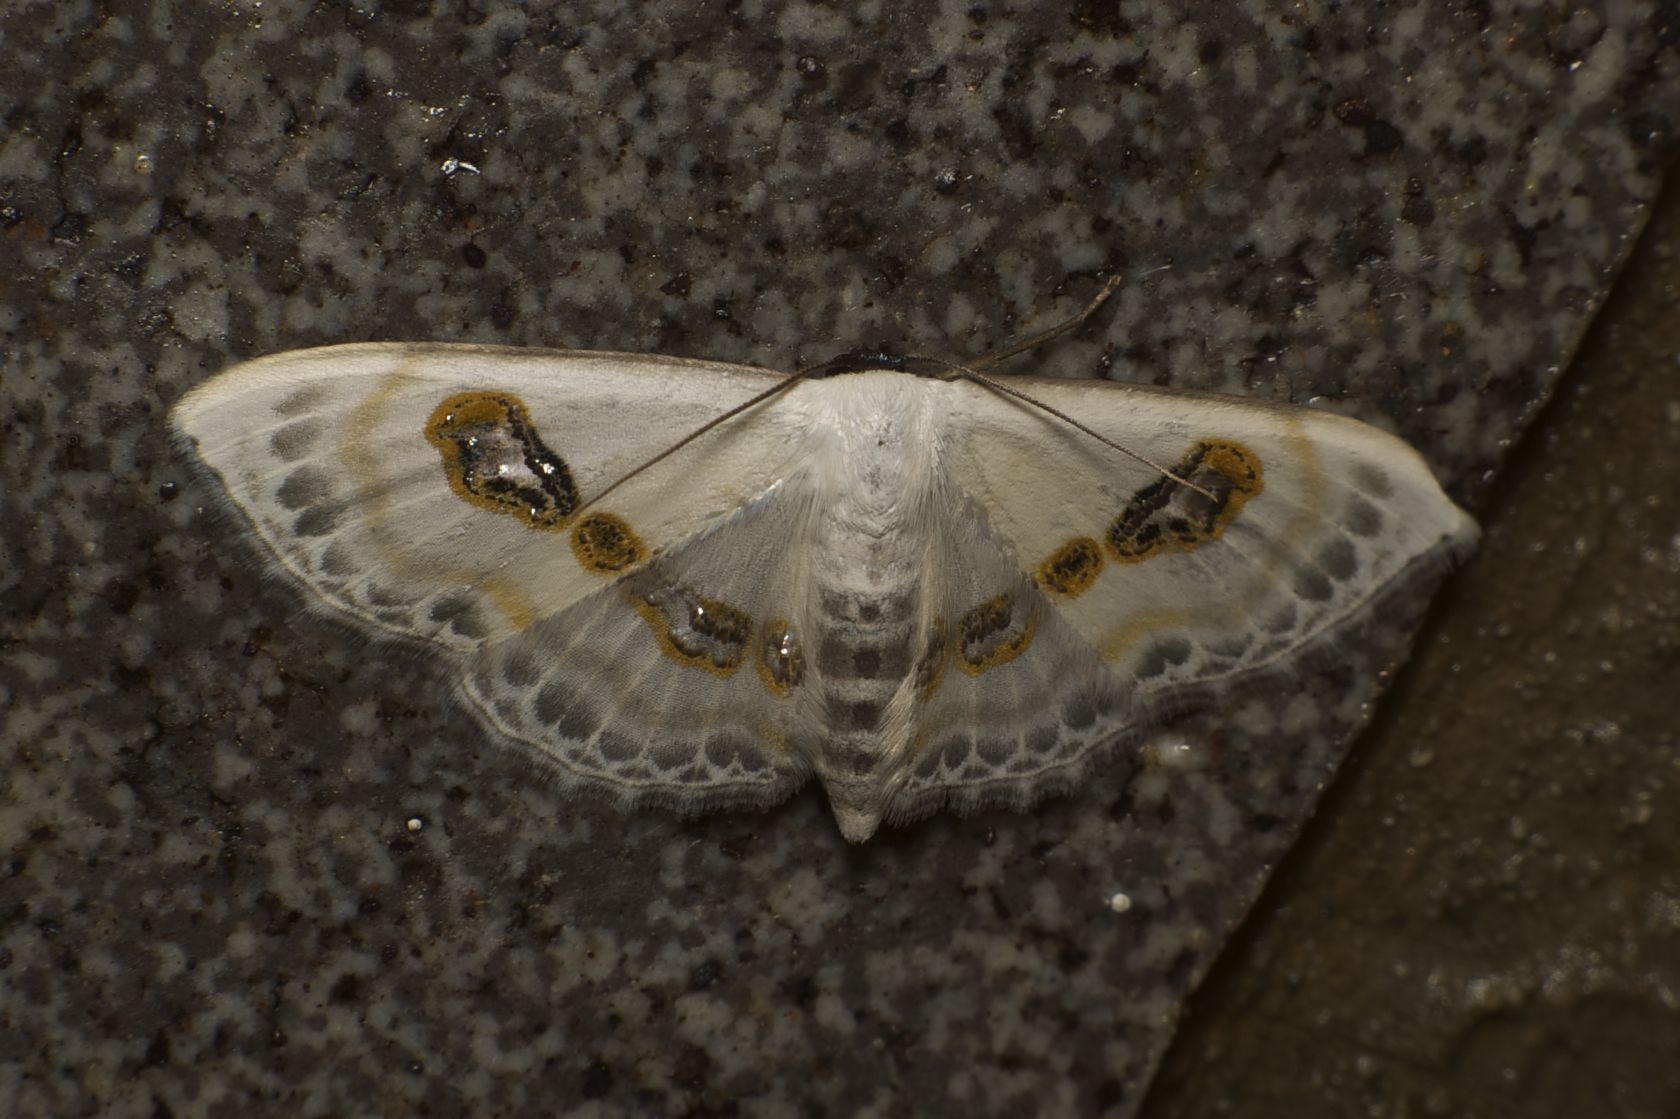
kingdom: Animalia
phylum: Arthropoda
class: Insecta
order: Lepidoptera
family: Geometridae
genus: Problepsis
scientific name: Problepsis vulgaris
